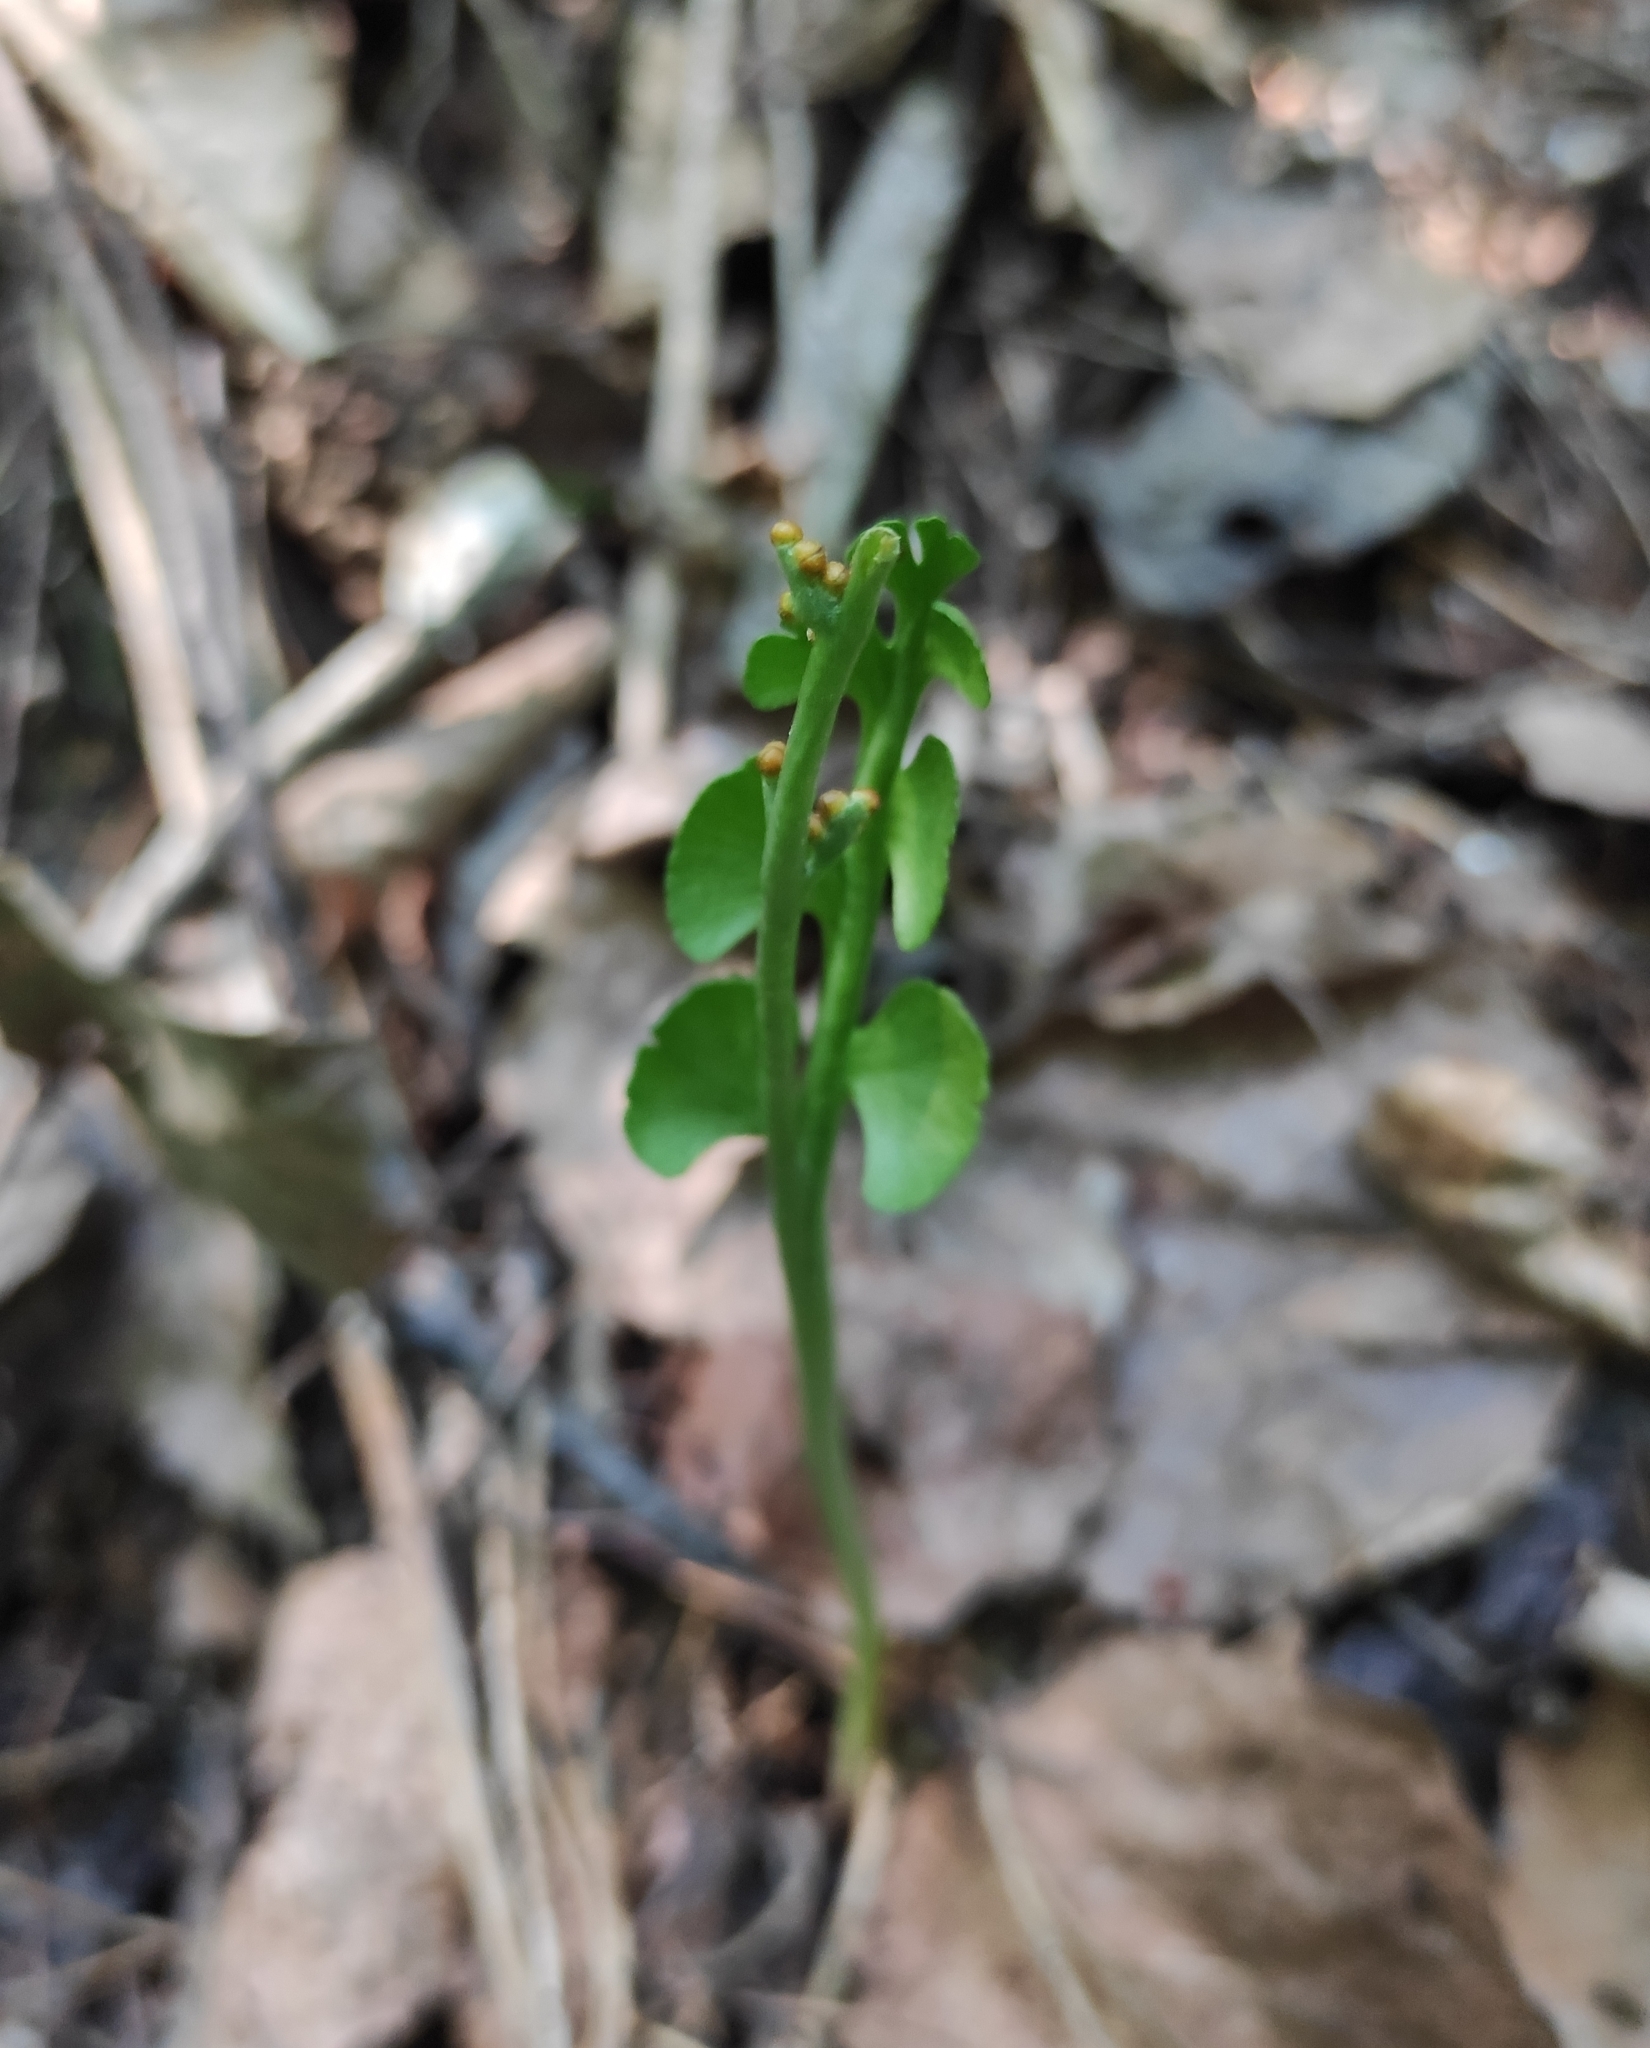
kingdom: Plantae
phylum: Tracheophyta
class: Polypodiopsida
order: Ophioglossales
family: Ophioglossaceae
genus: Botrychium
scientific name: Botrychium lunaria
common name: Moonwort
